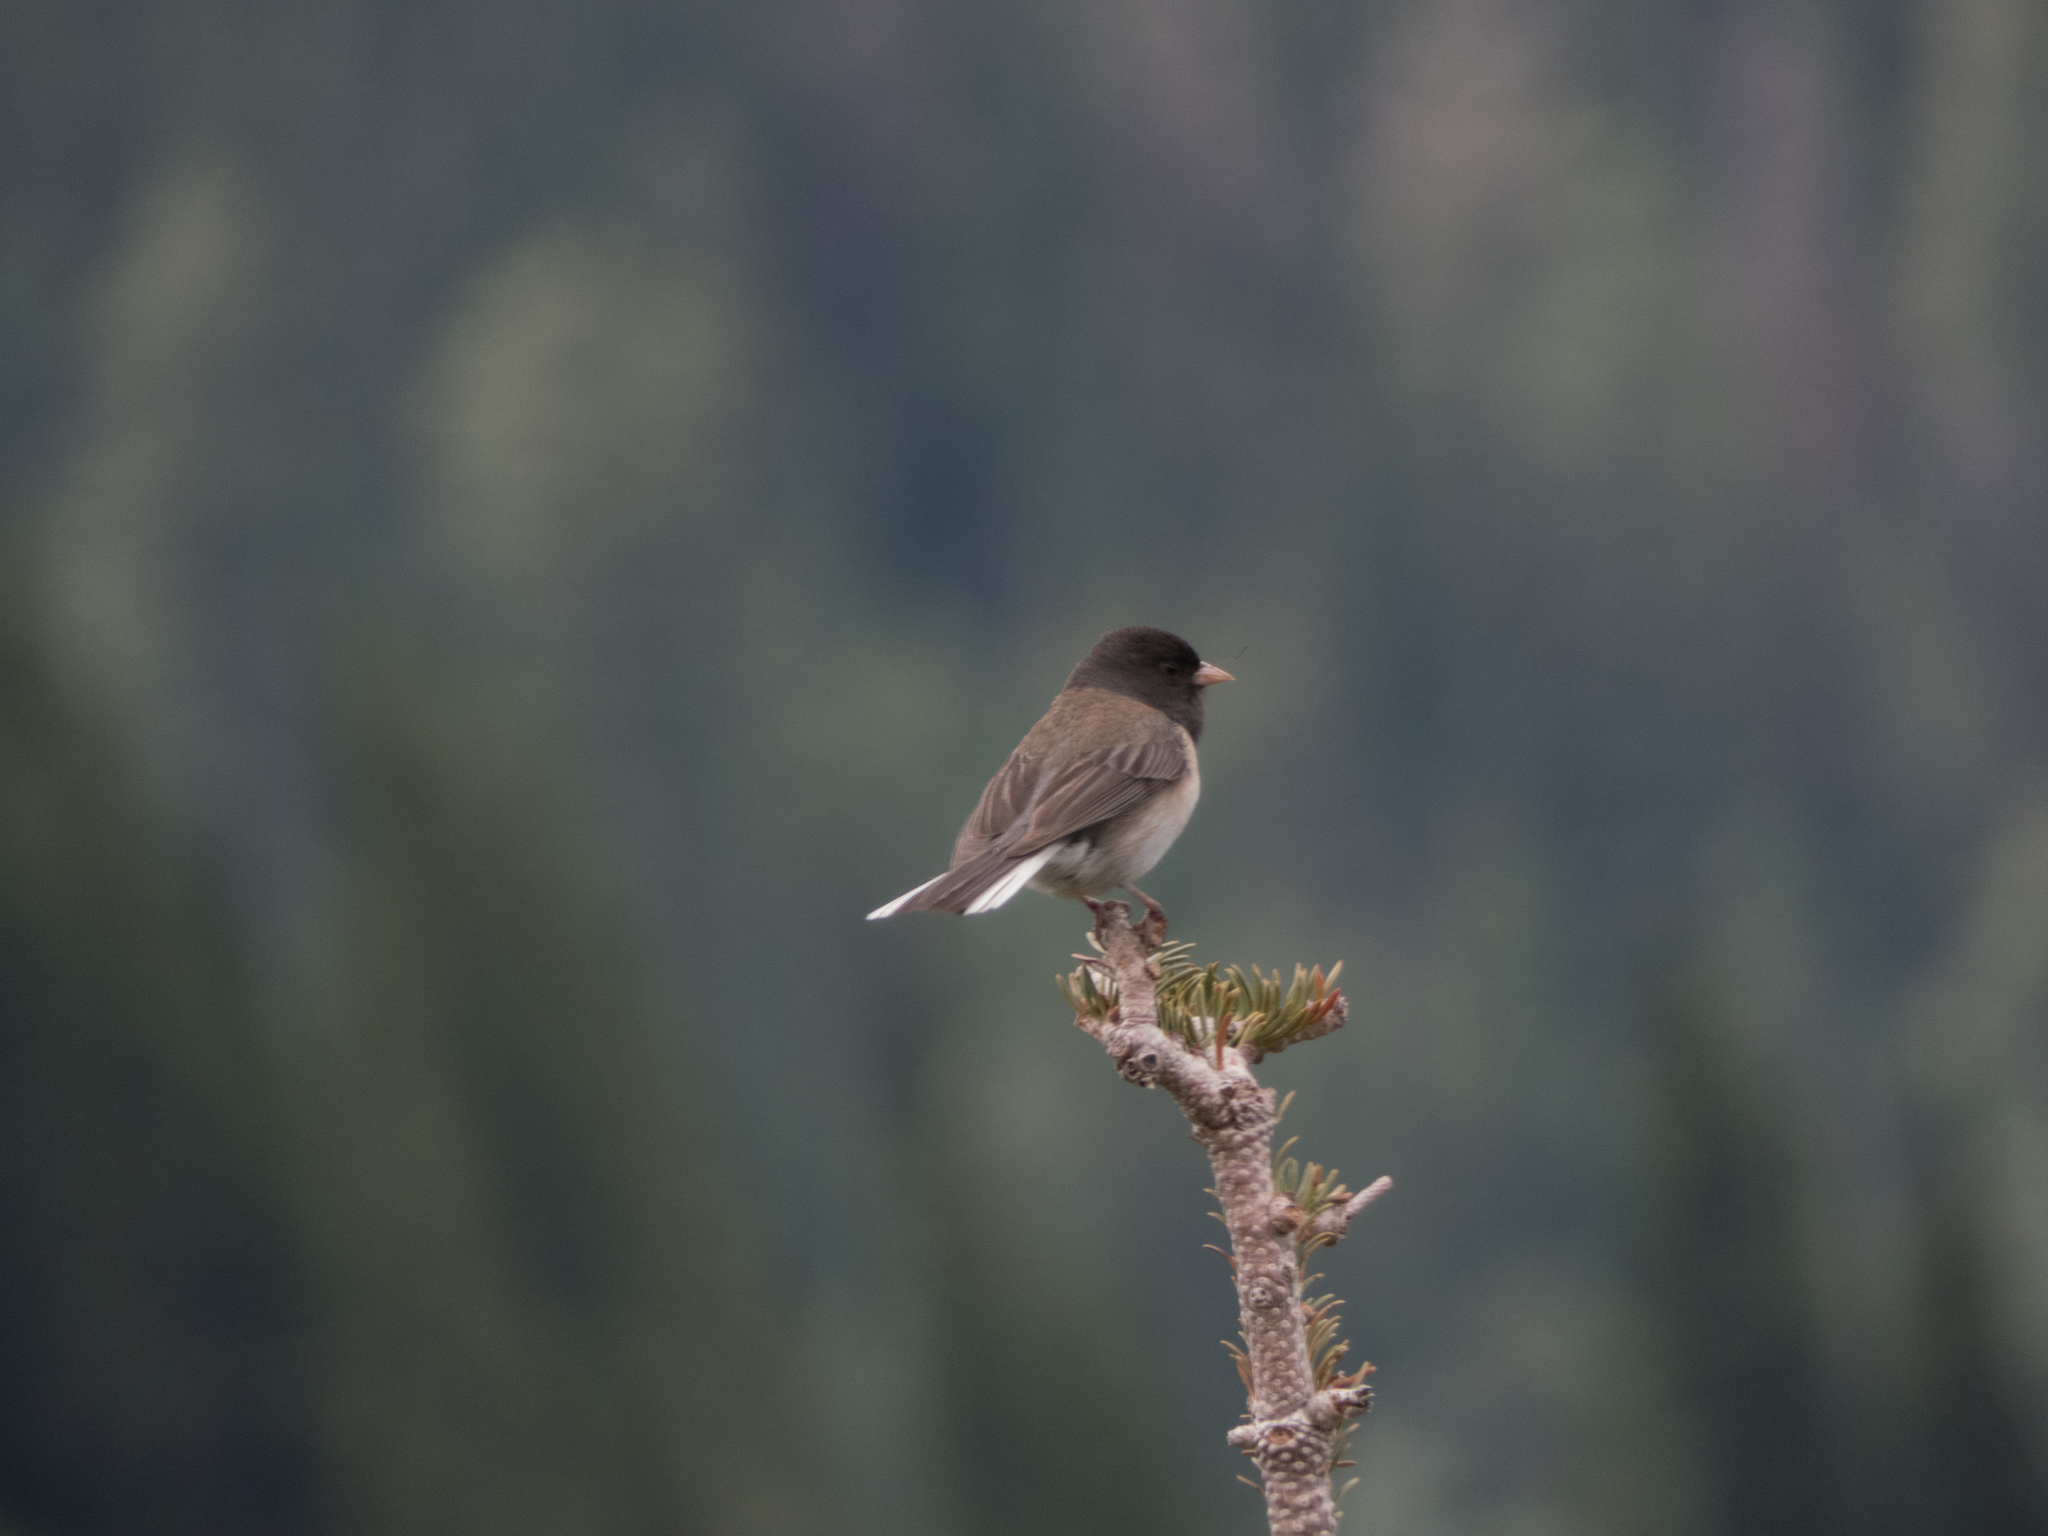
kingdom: Animalia
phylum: Chordata
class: Aves
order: Passeriformes
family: Passerellidae
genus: Junco
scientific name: Junco hyemalis
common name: Dark-eyed junco
